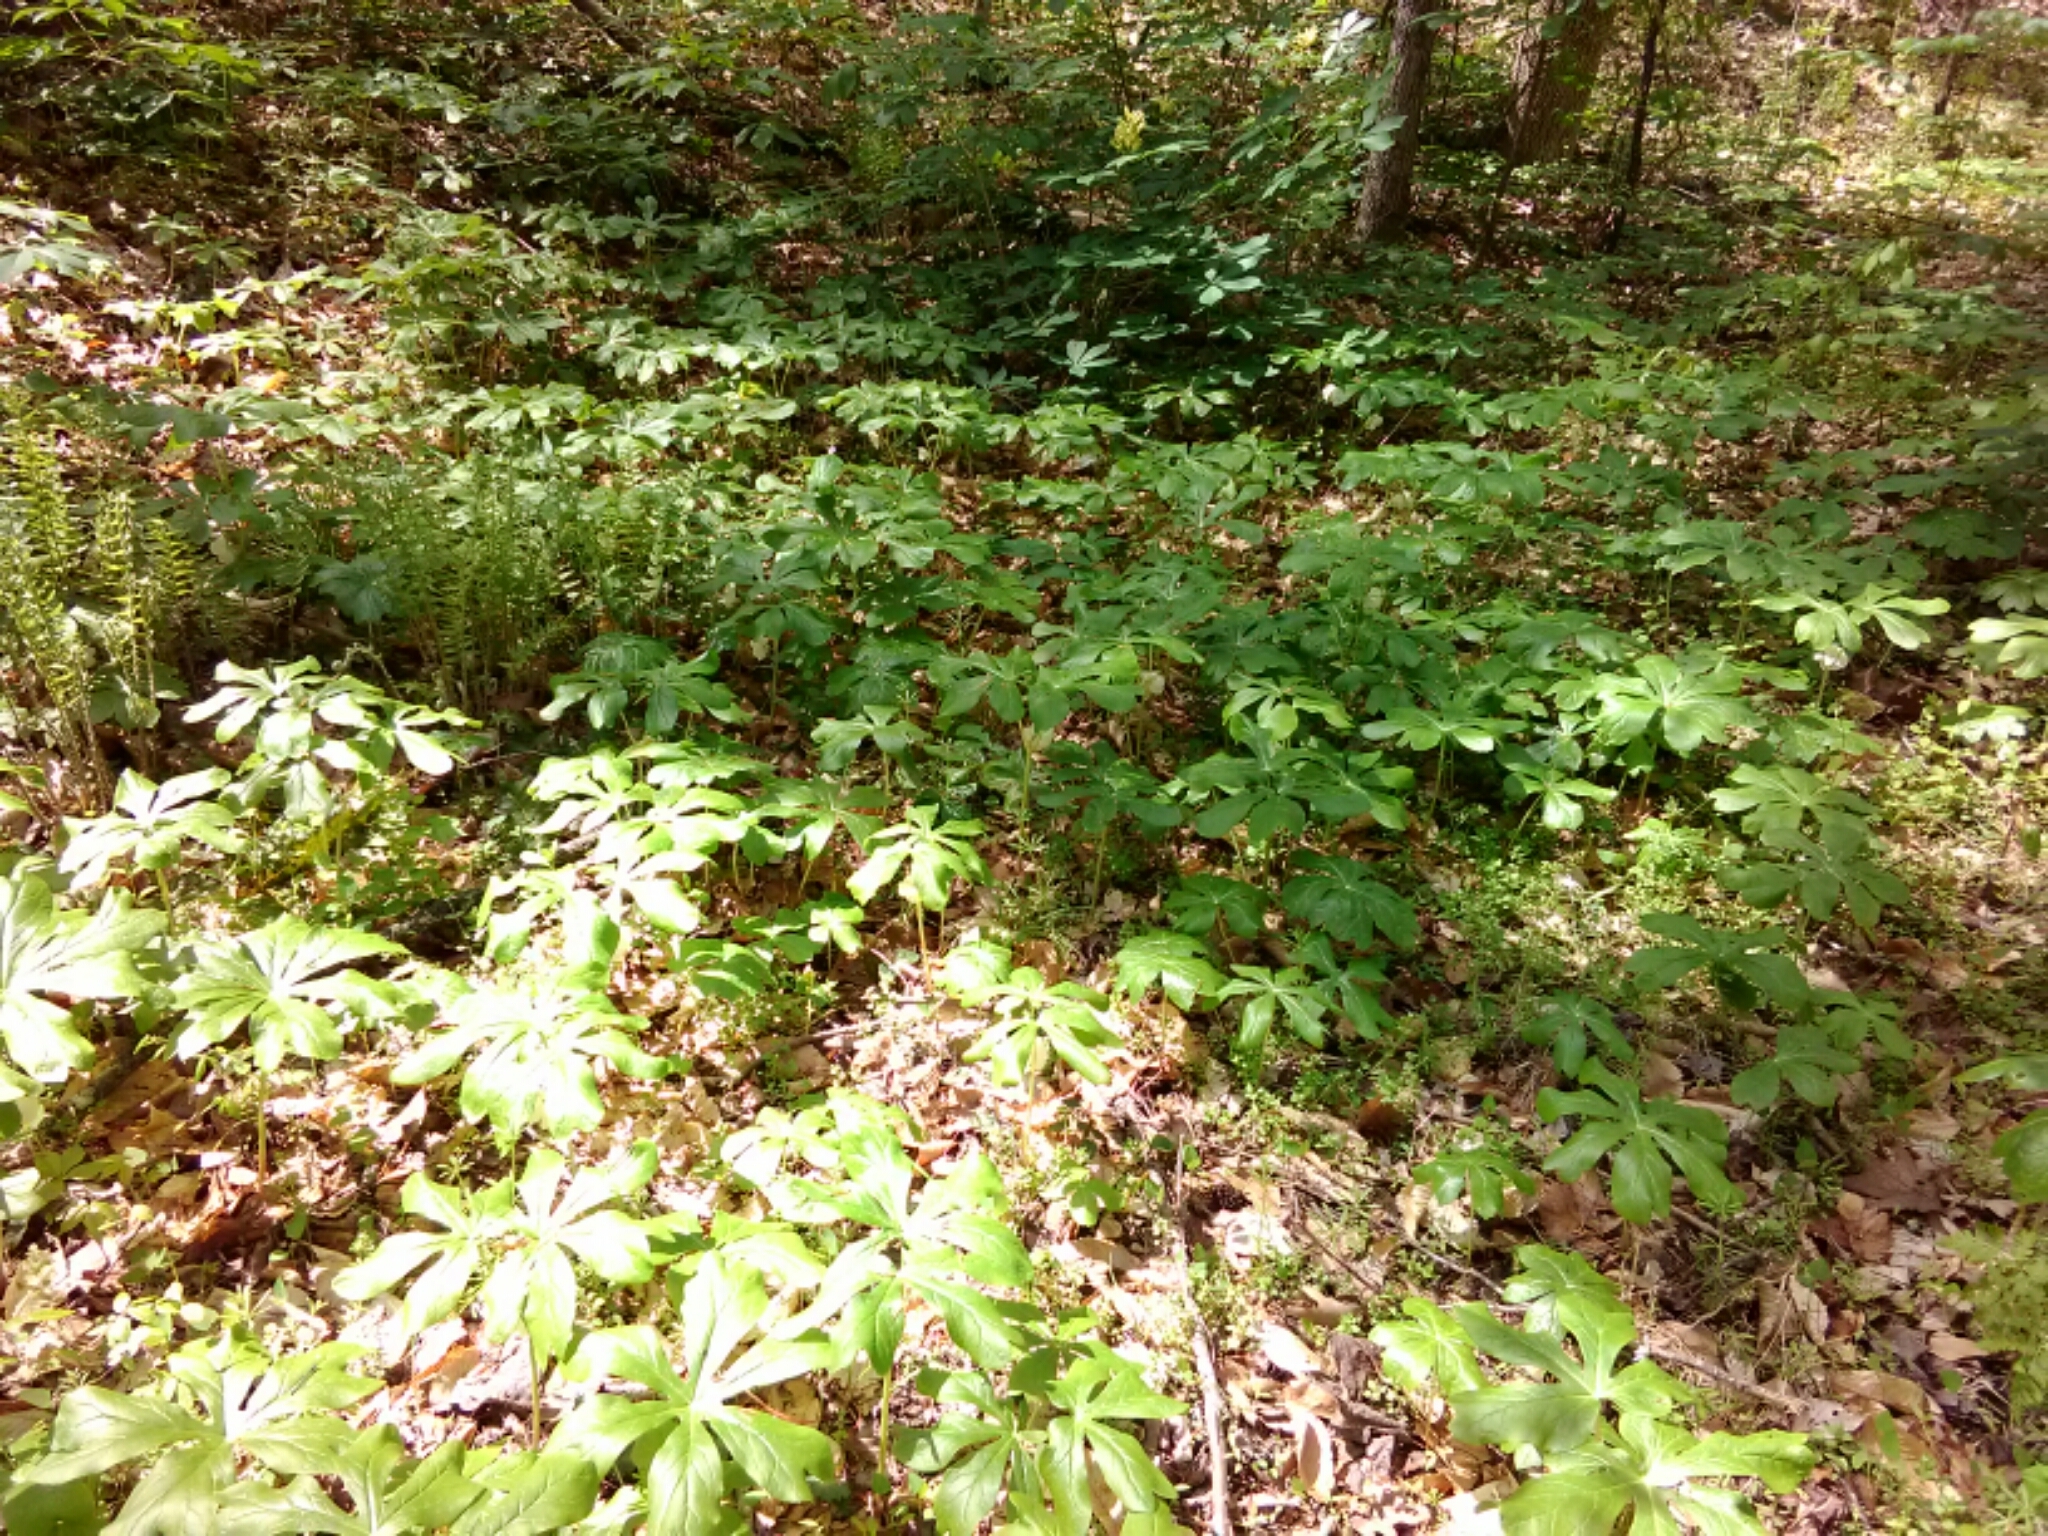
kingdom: Plantae
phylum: Tracheophyta
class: Magnoliopsida
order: Ranunculales
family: Berberidaceae
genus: Podophyllum
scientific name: Podophyllum peltatum
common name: Wild mandrake
